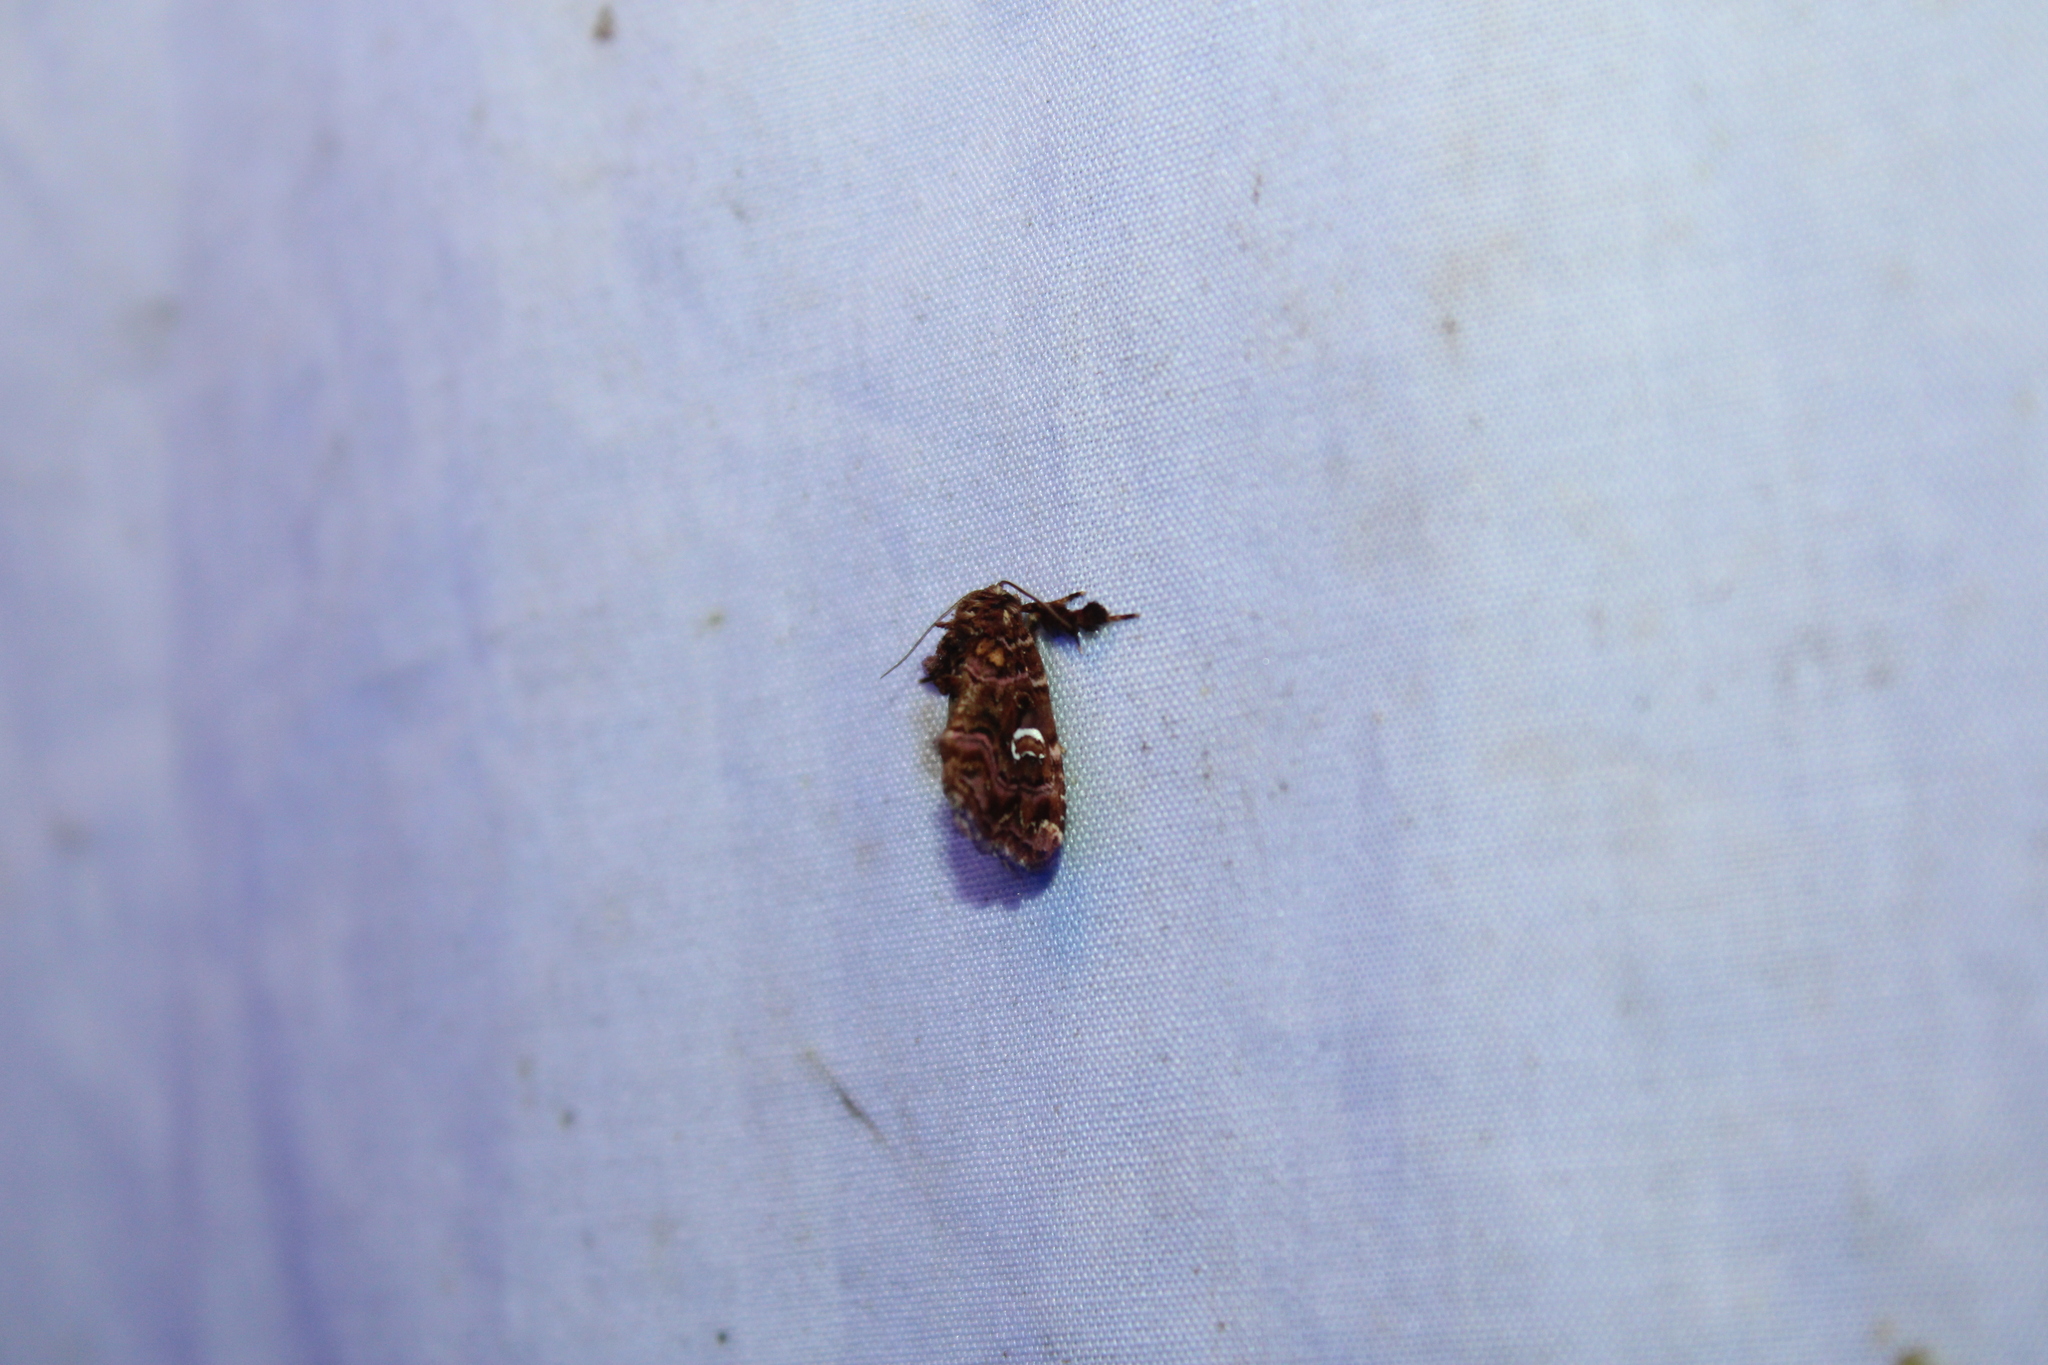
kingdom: Animalia
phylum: Arthropoda
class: Insecta
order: Lepidoptera
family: Noctuidae
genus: Callopistria
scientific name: Callopistria mollissima
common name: Pink-shaded fern moth
